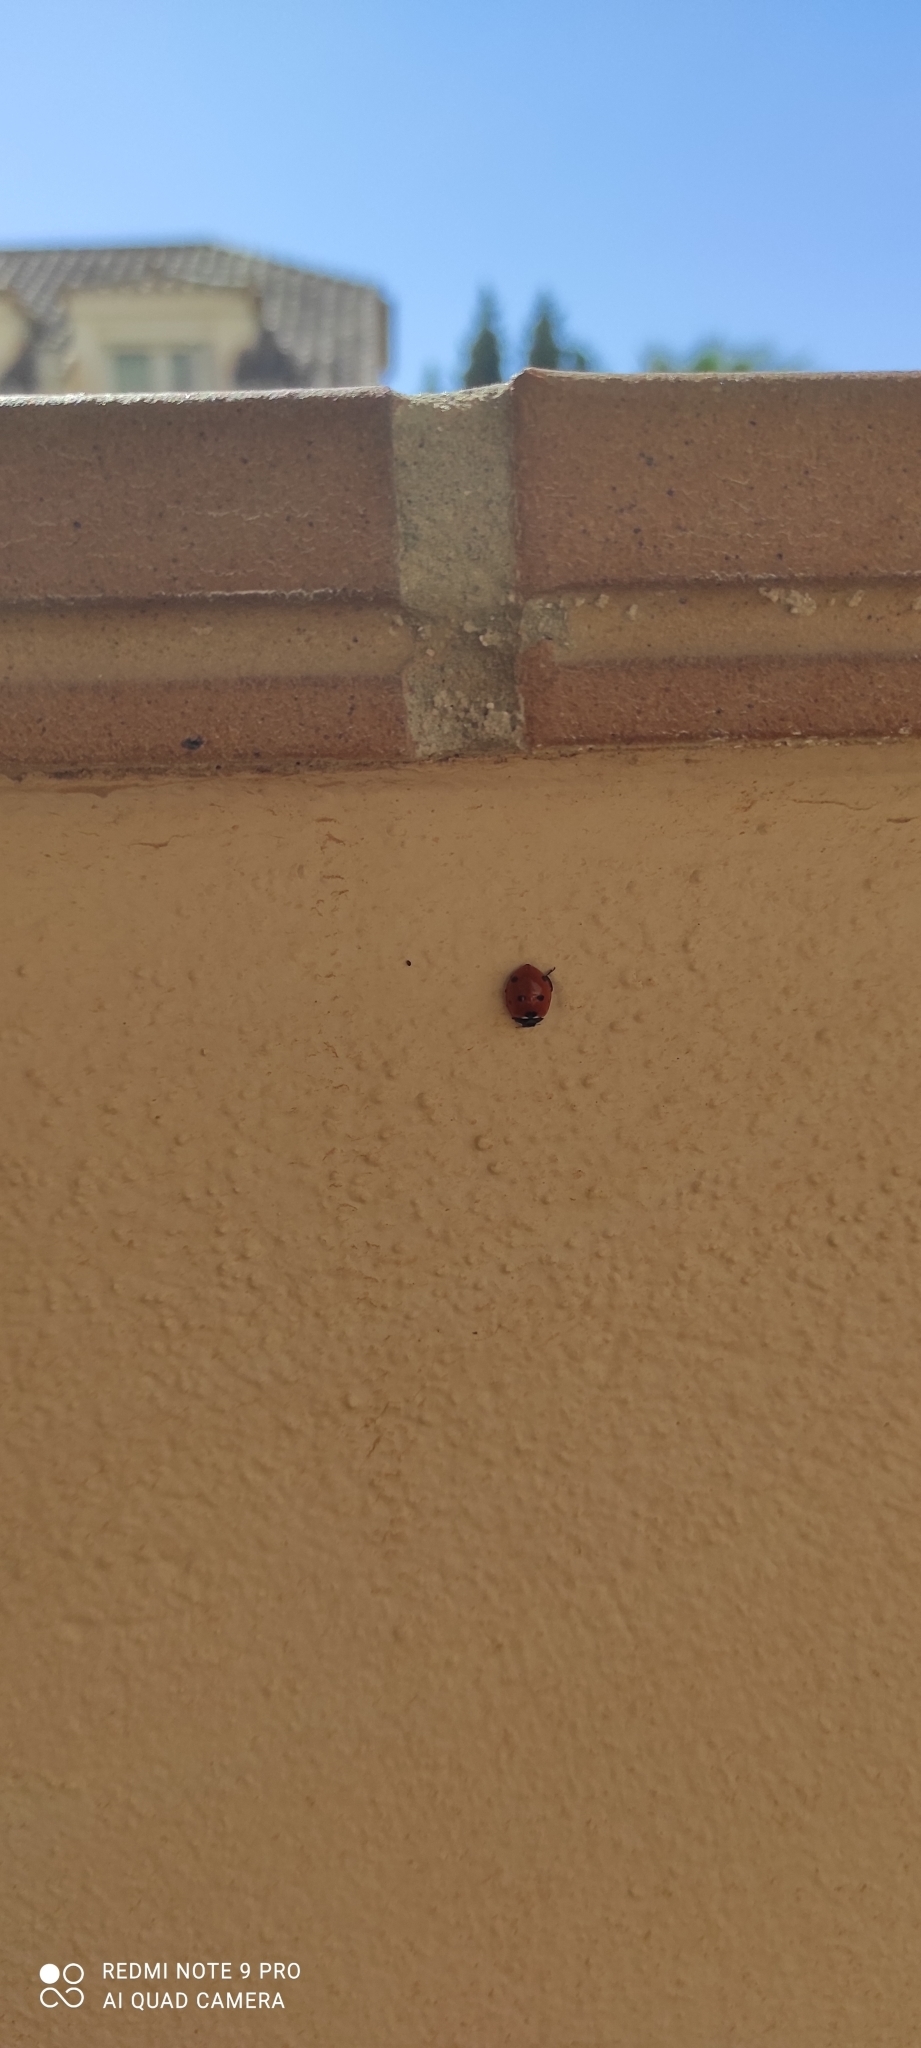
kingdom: Animalia
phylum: Arthropoda
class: Insecta
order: Coleoptera
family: Coccinellidae
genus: Coccinella
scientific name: Coccinella septempunctata
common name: Sevenspotted lady beetle
